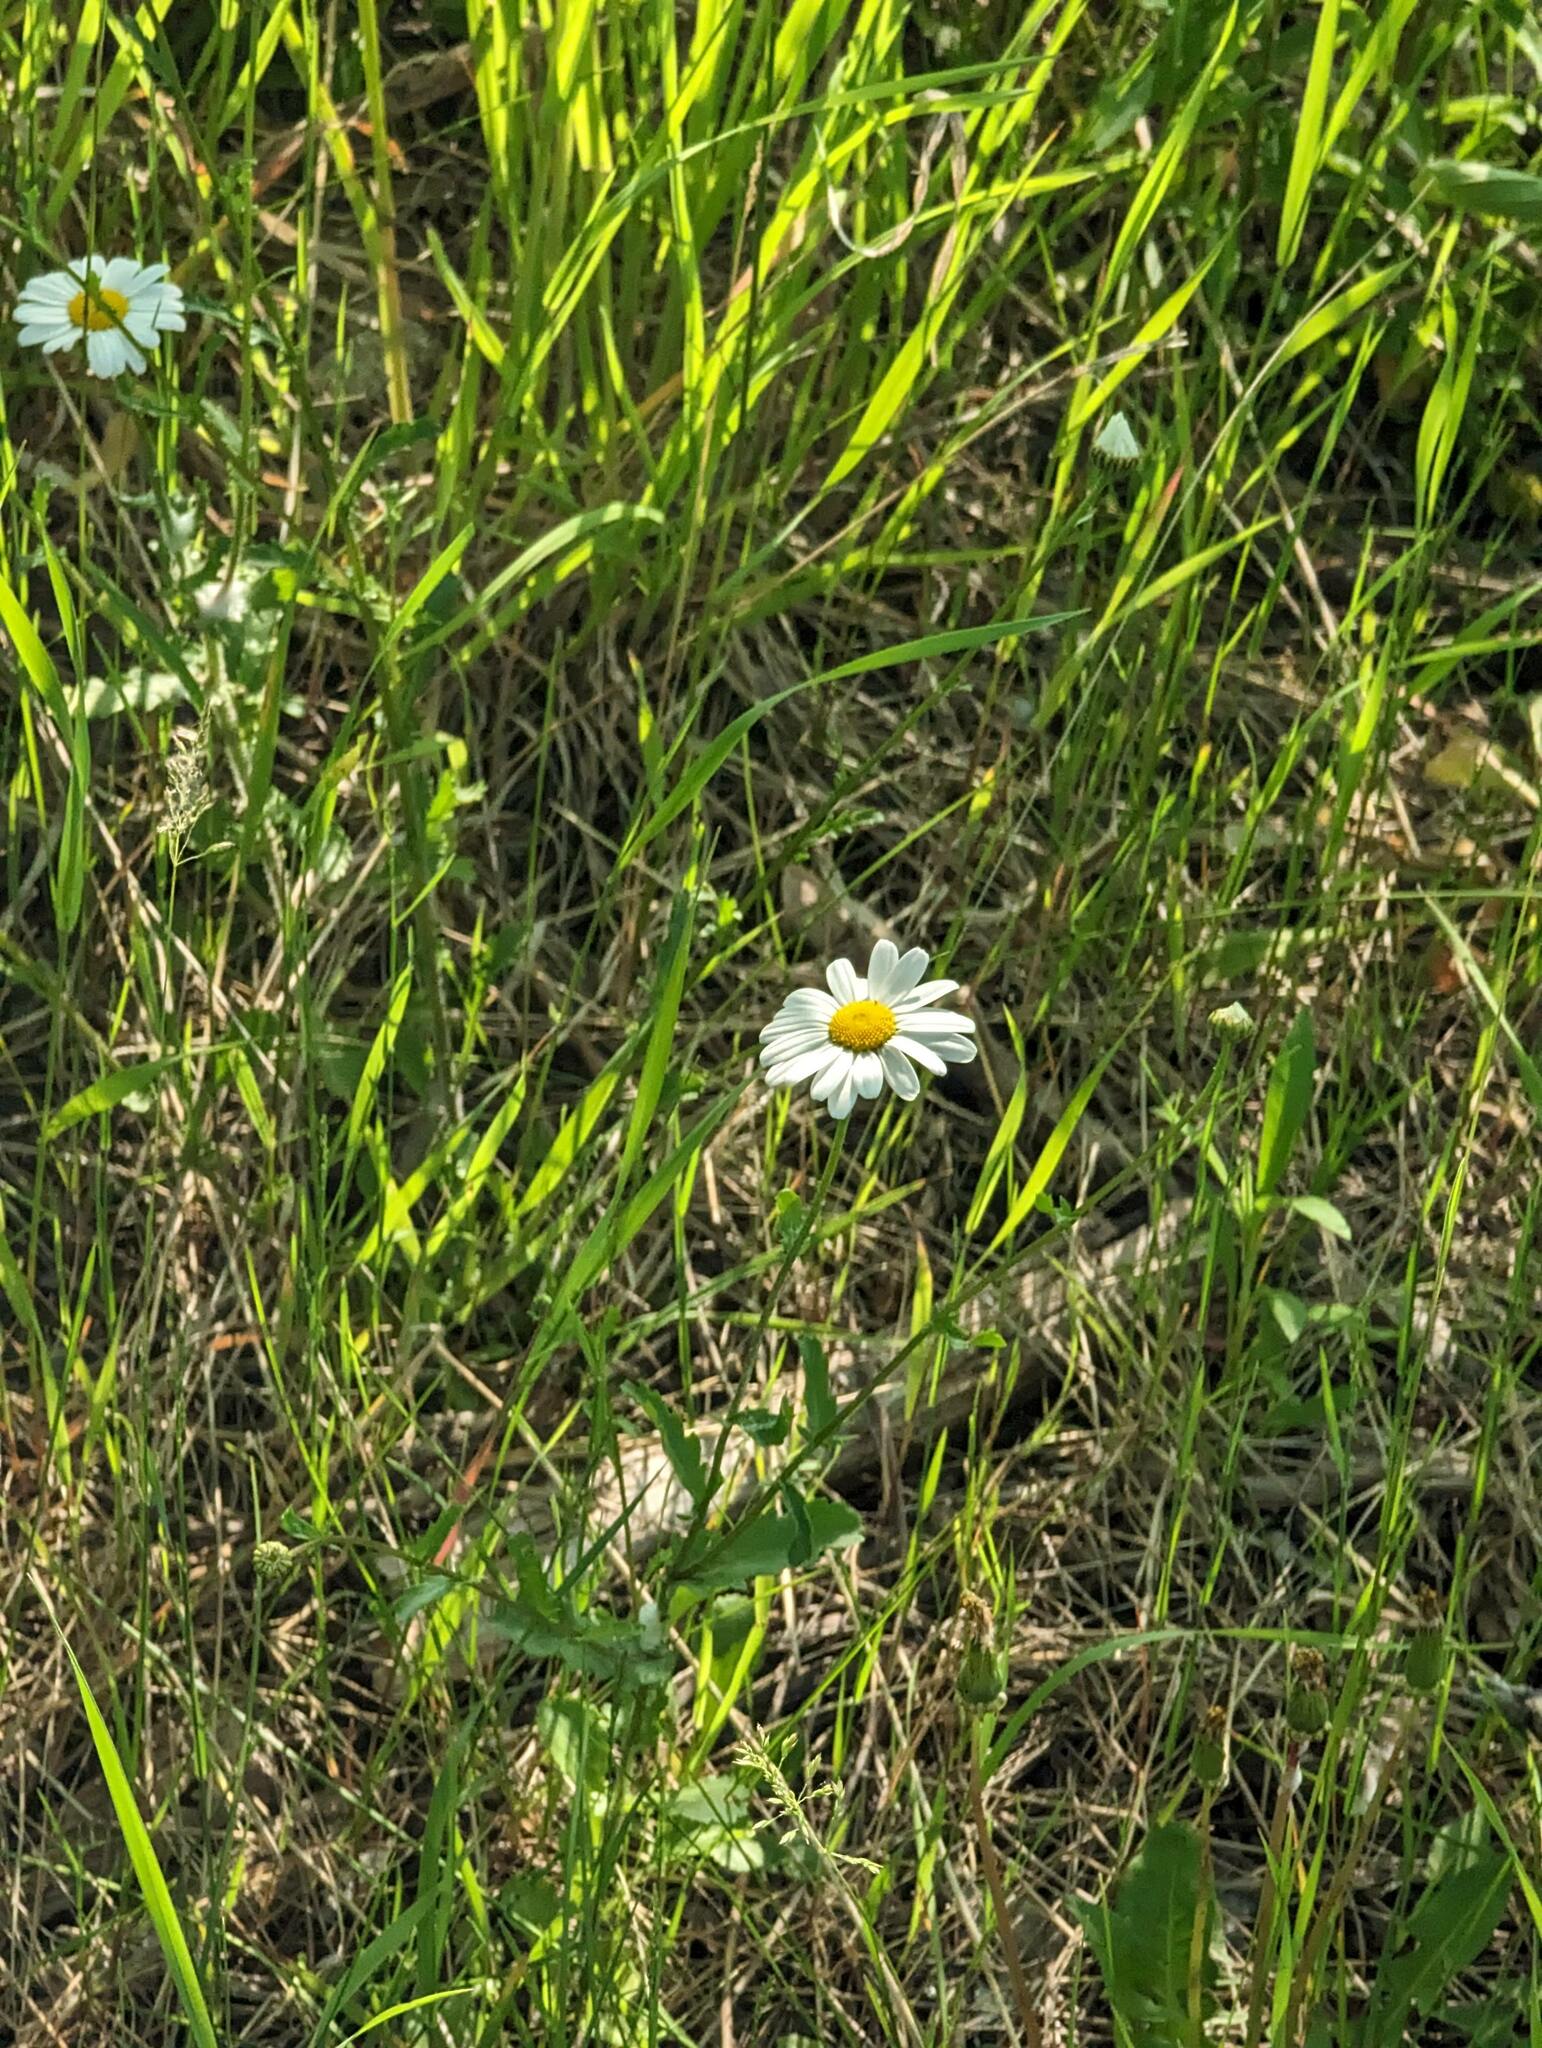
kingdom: Plantae
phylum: Tracheophyta
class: Magnoliopsida
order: Asterales
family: Asteraceae
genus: Leucanthemum
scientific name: Leucanthemum vulgare
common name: Oxeye daisy
